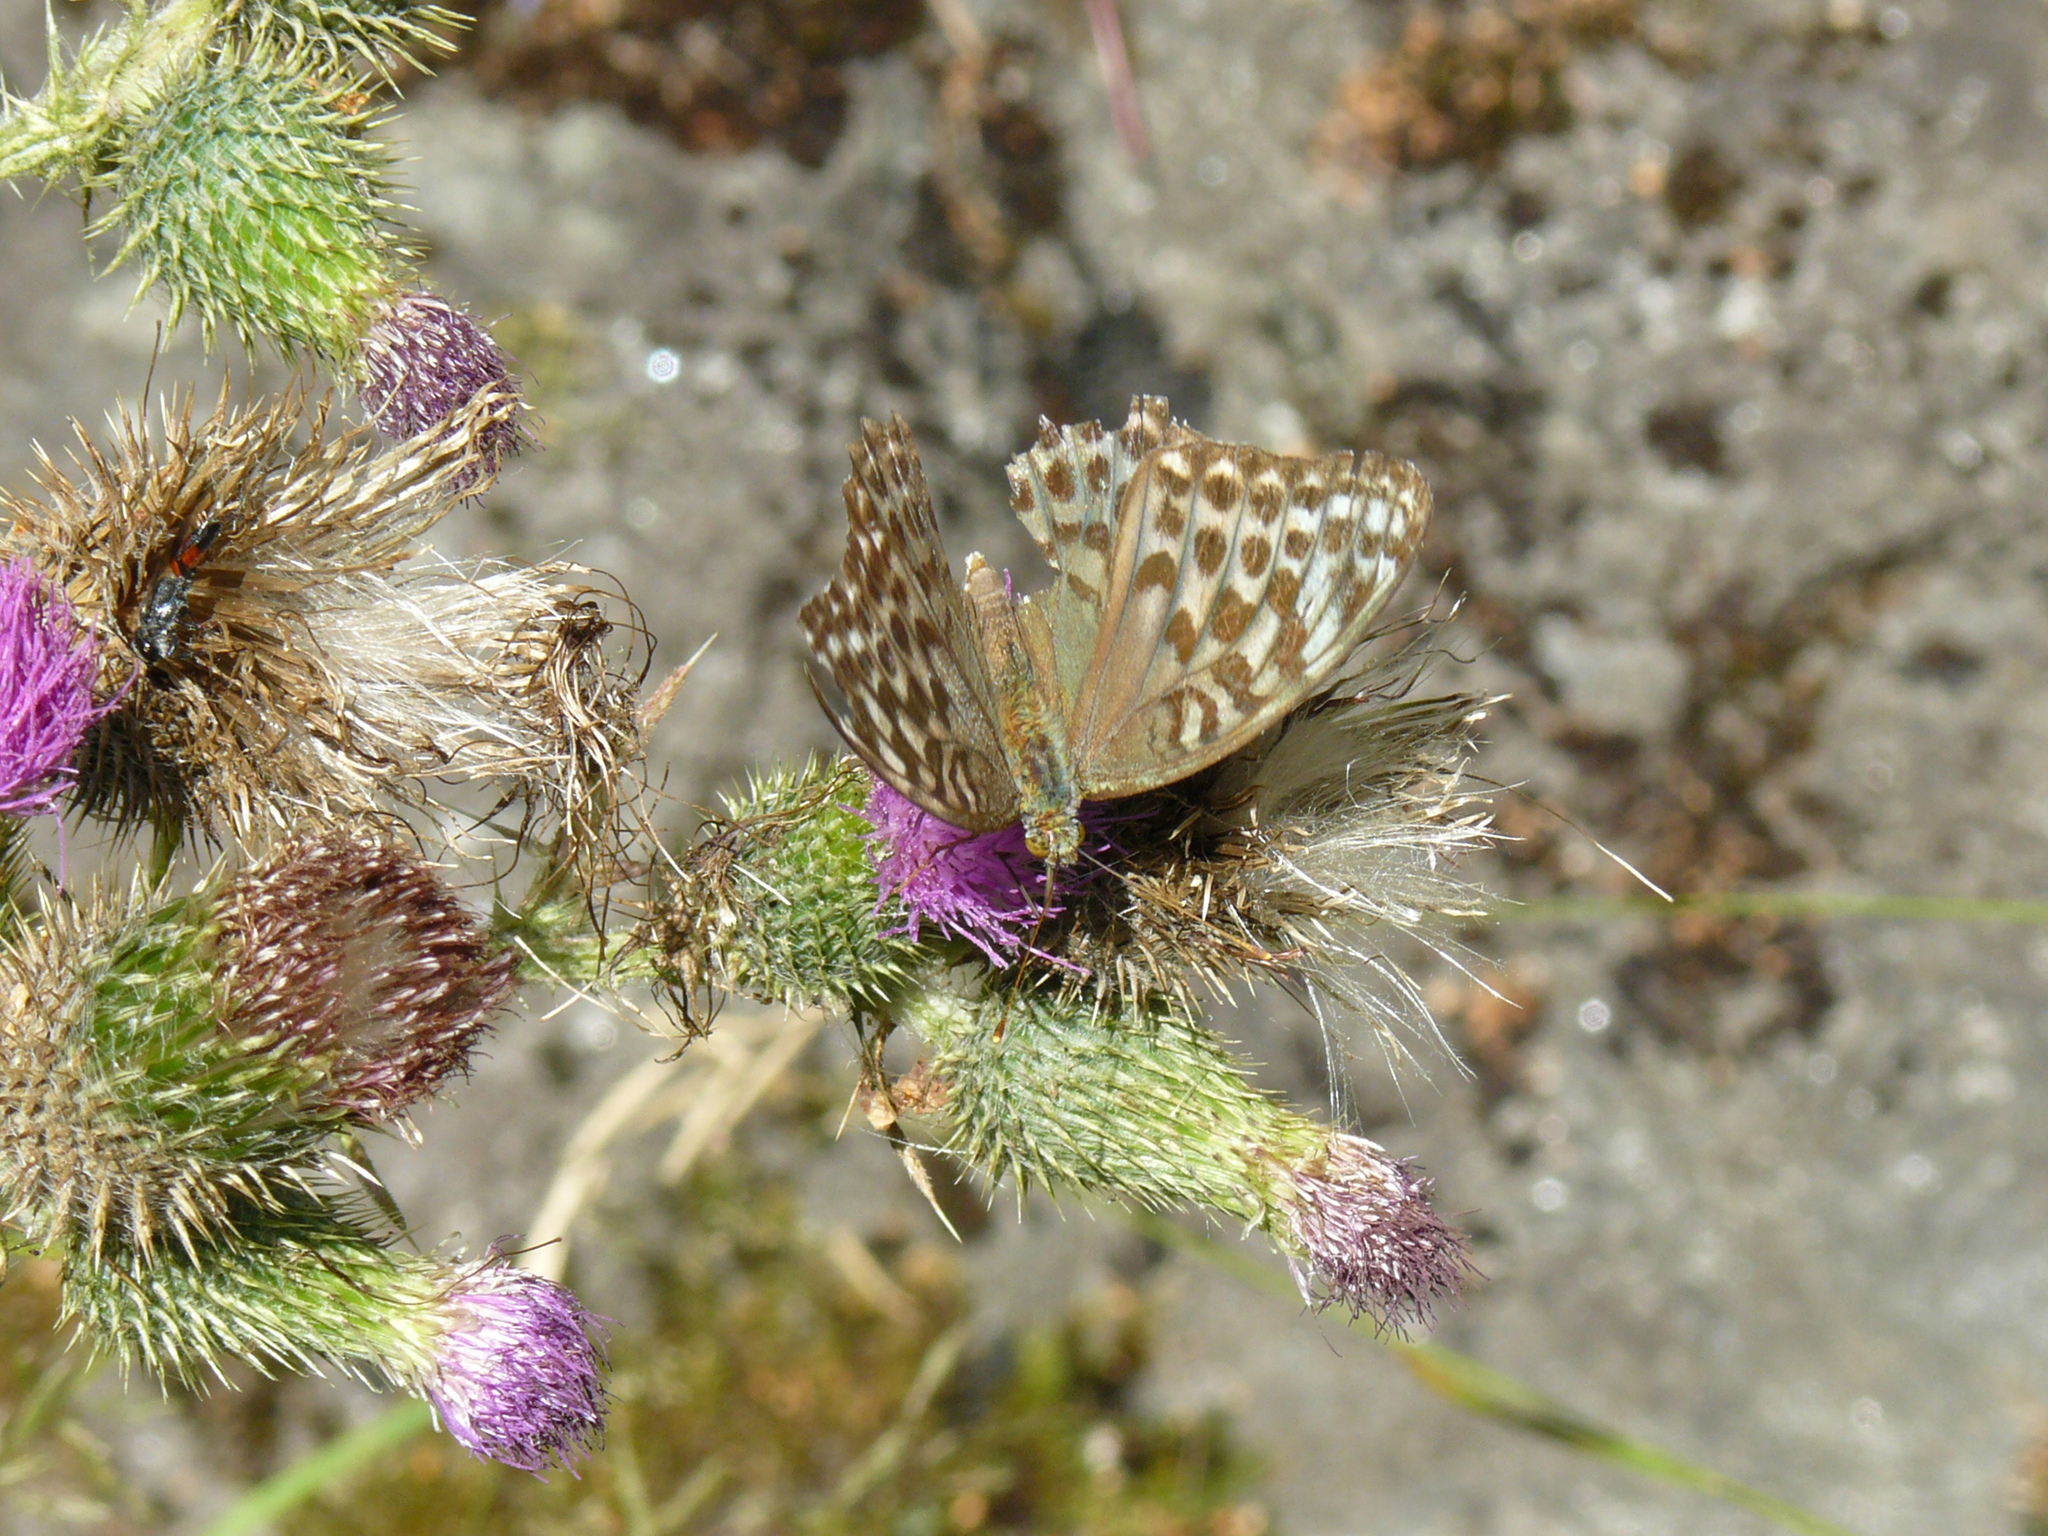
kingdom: Animalia
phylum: Arthropoda
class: Insecta
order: Lepidoptera
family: Nymphalidae
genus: Argynnis
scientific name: Argynnis paphia
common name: Silver-washed fritillary
